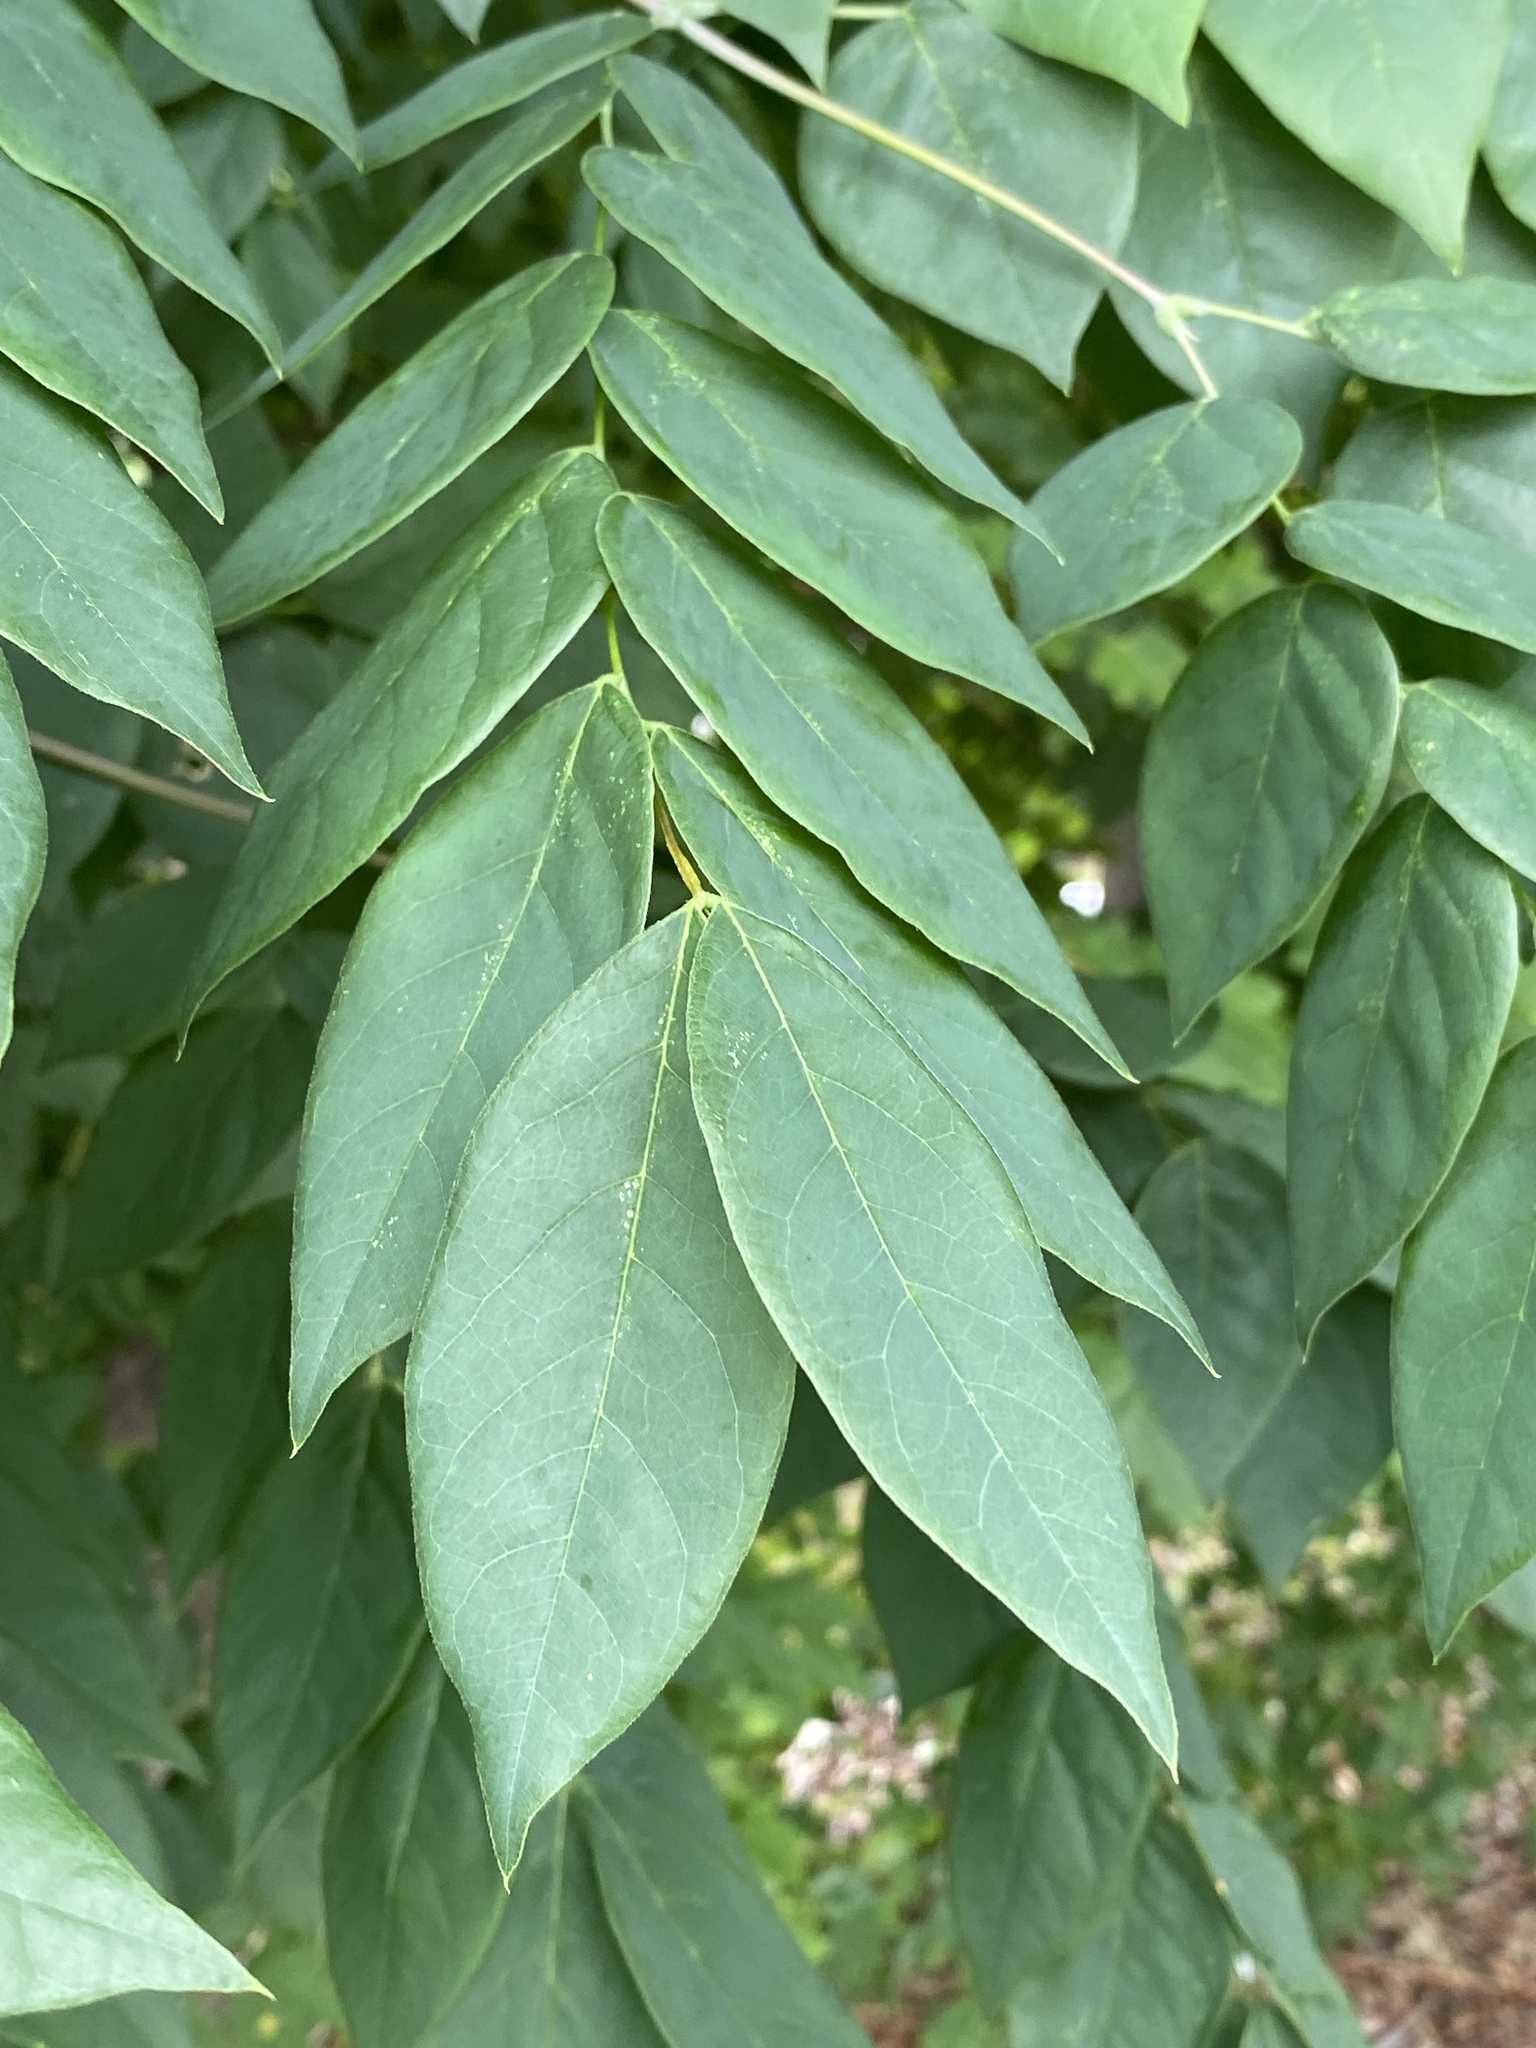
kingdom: Plantae
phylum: Tracheophyta
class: Magnoliopsida
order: Fabales
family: Fabaceae
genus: Gymnocladus
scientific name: Gymnocladus dioicus
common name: Kentucky coffee-tree
